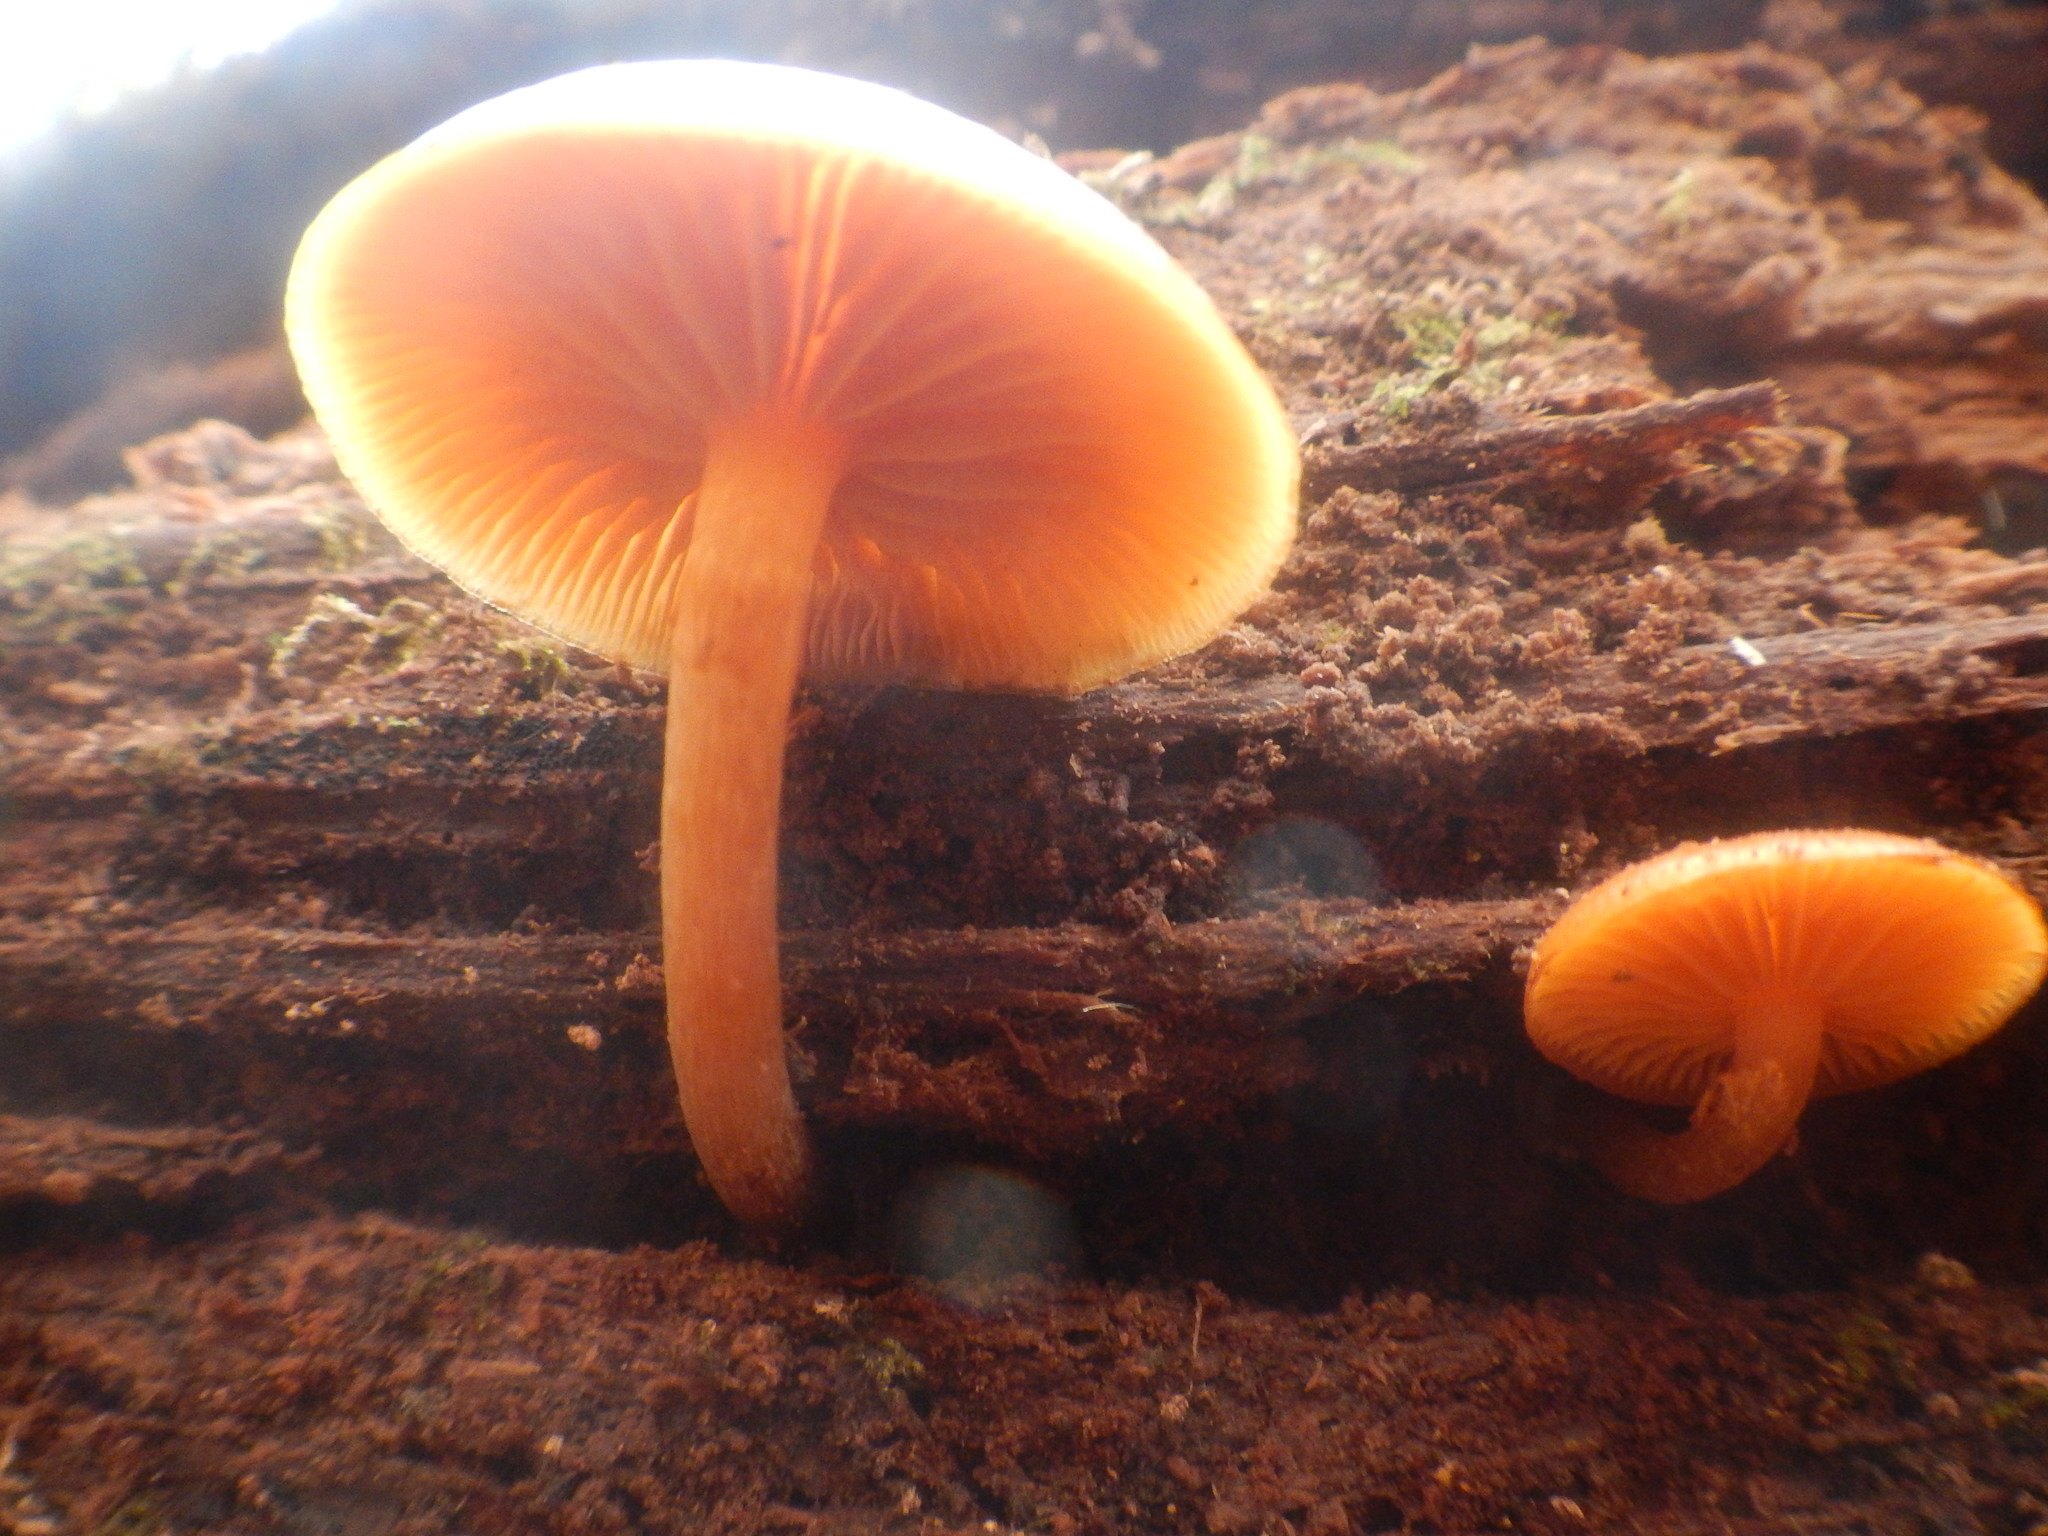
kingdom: Fungi
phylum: Basidiomycota
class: Agaricomycetes
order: Agaricales
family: Hymenogastraceae
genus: Galerina
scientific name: Galerina marginata
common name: Funeral bell
